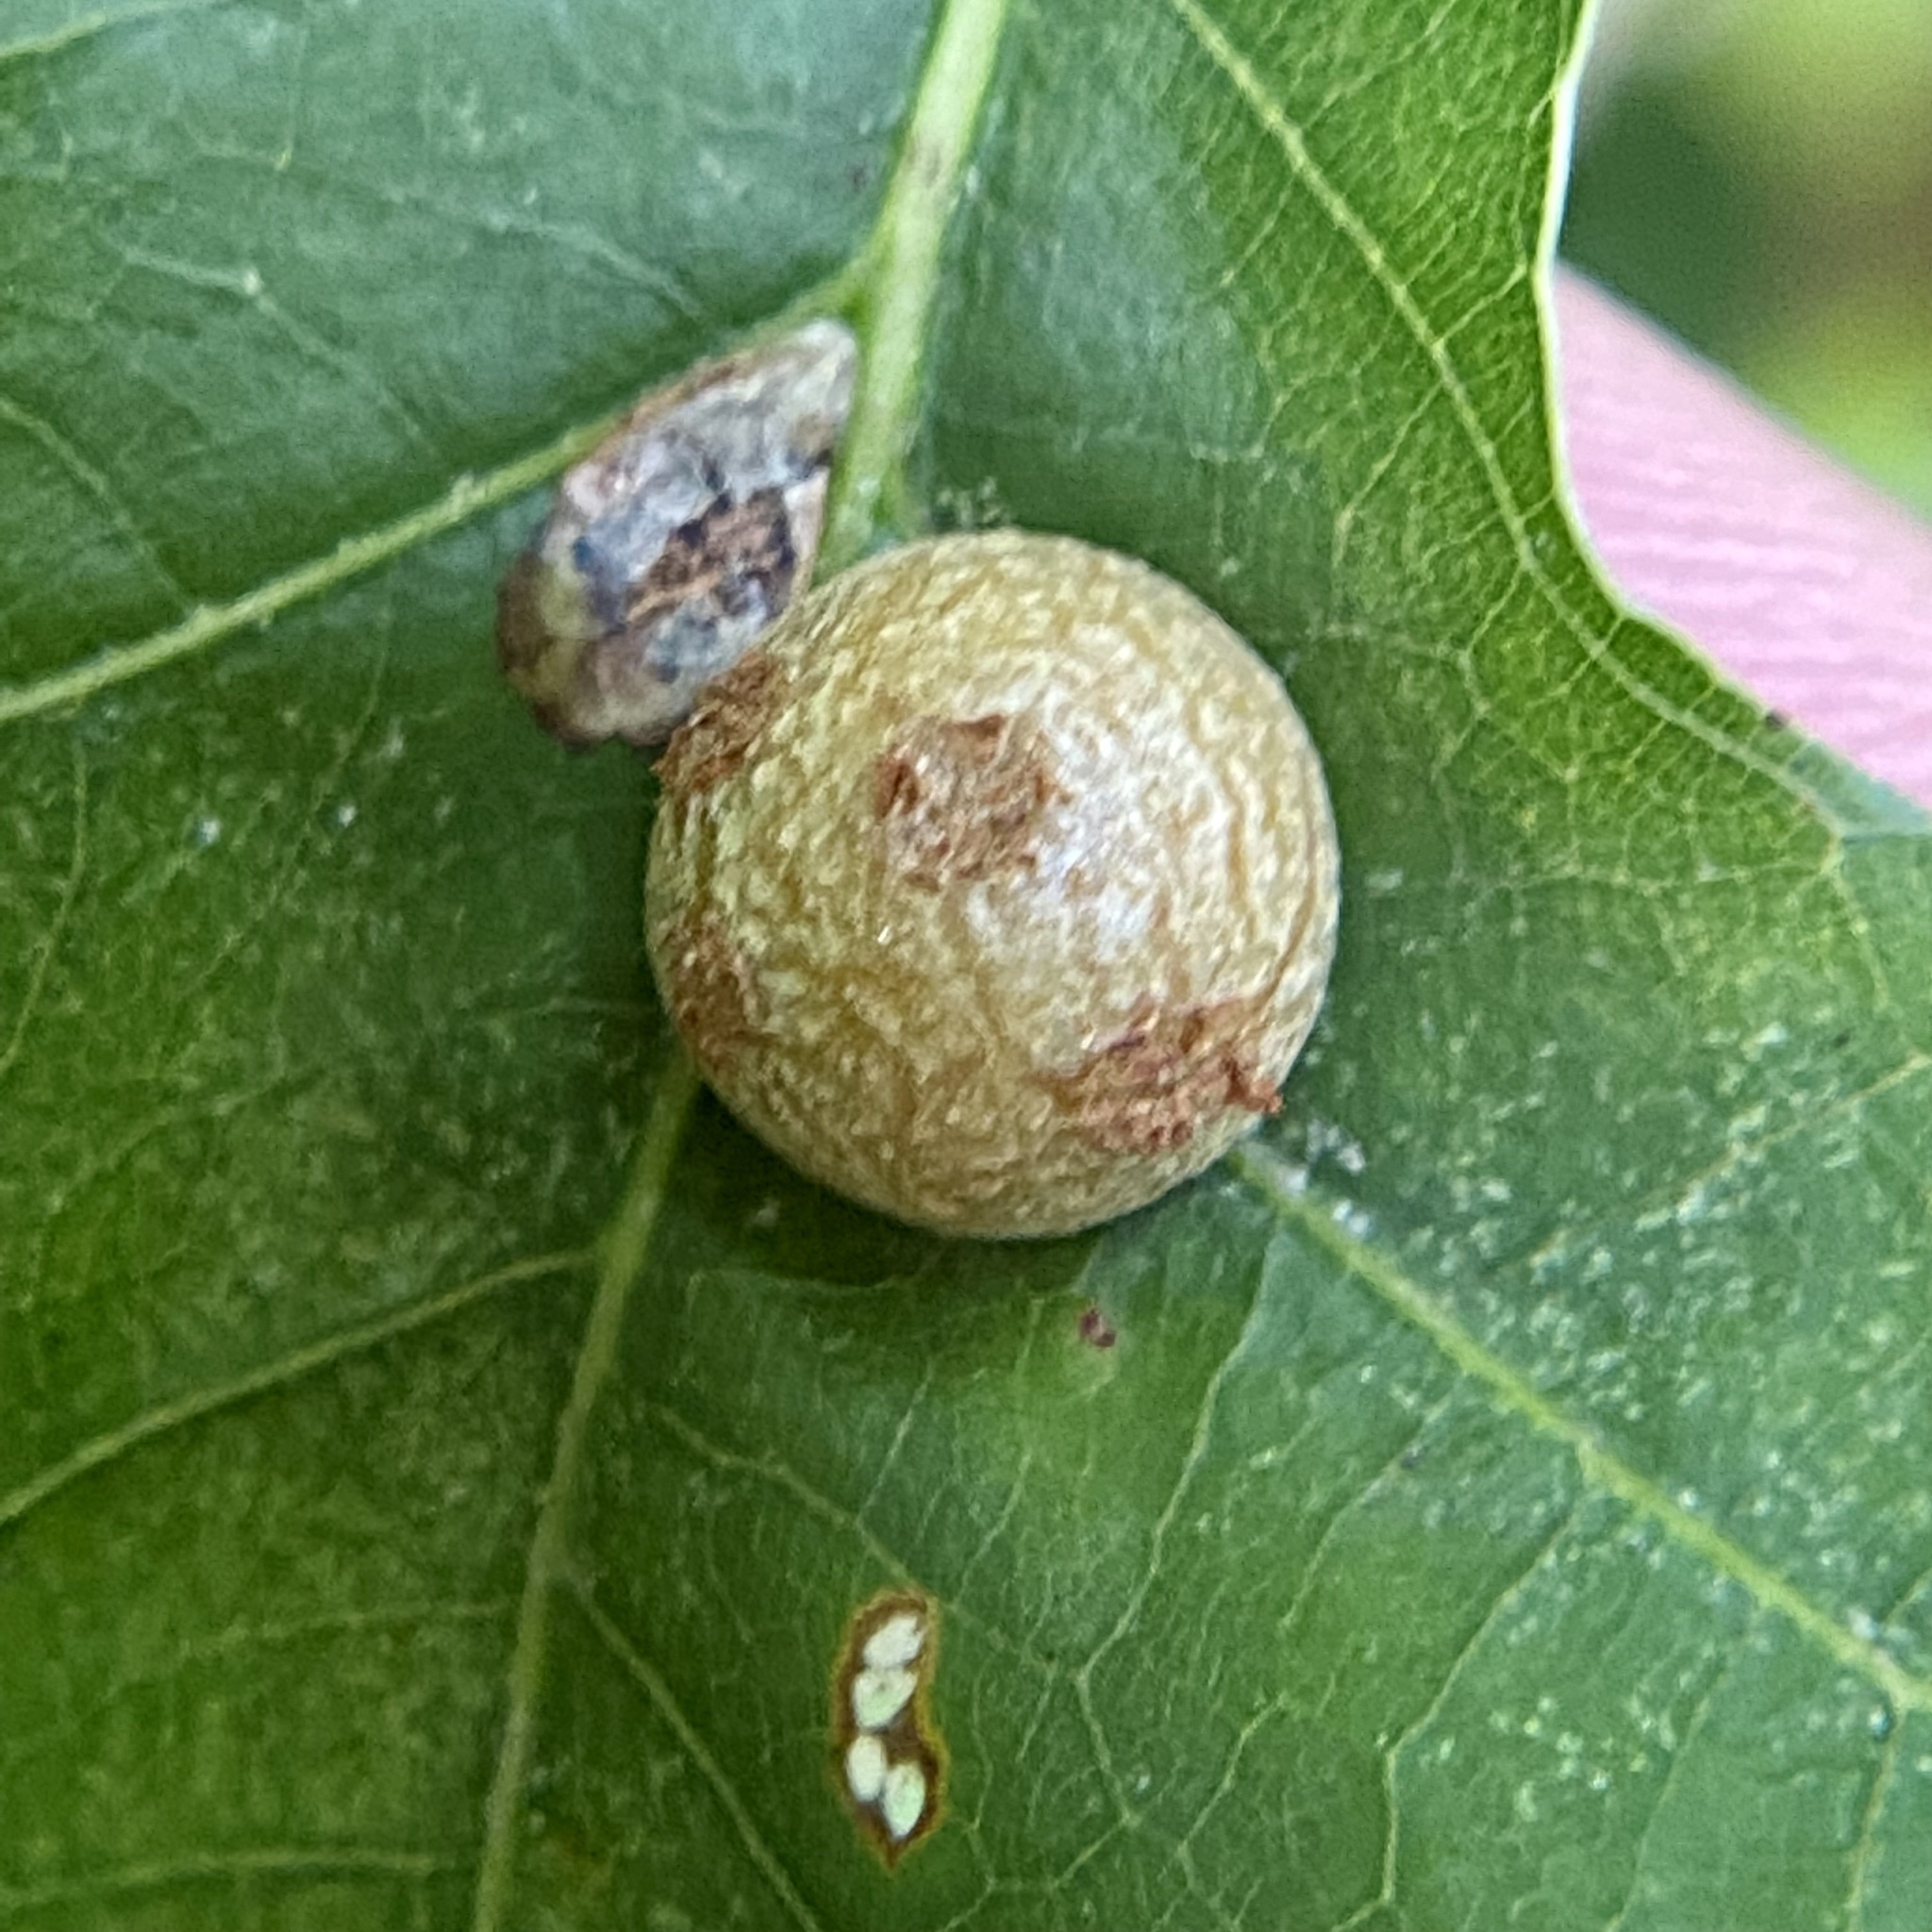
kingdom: Animalia
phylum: Arthropoda
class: Insecta
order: Diptera
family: Cecidomyiidae
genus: Polystepha
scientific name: Polystepha pilulae
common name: Oak leaf gall midge
